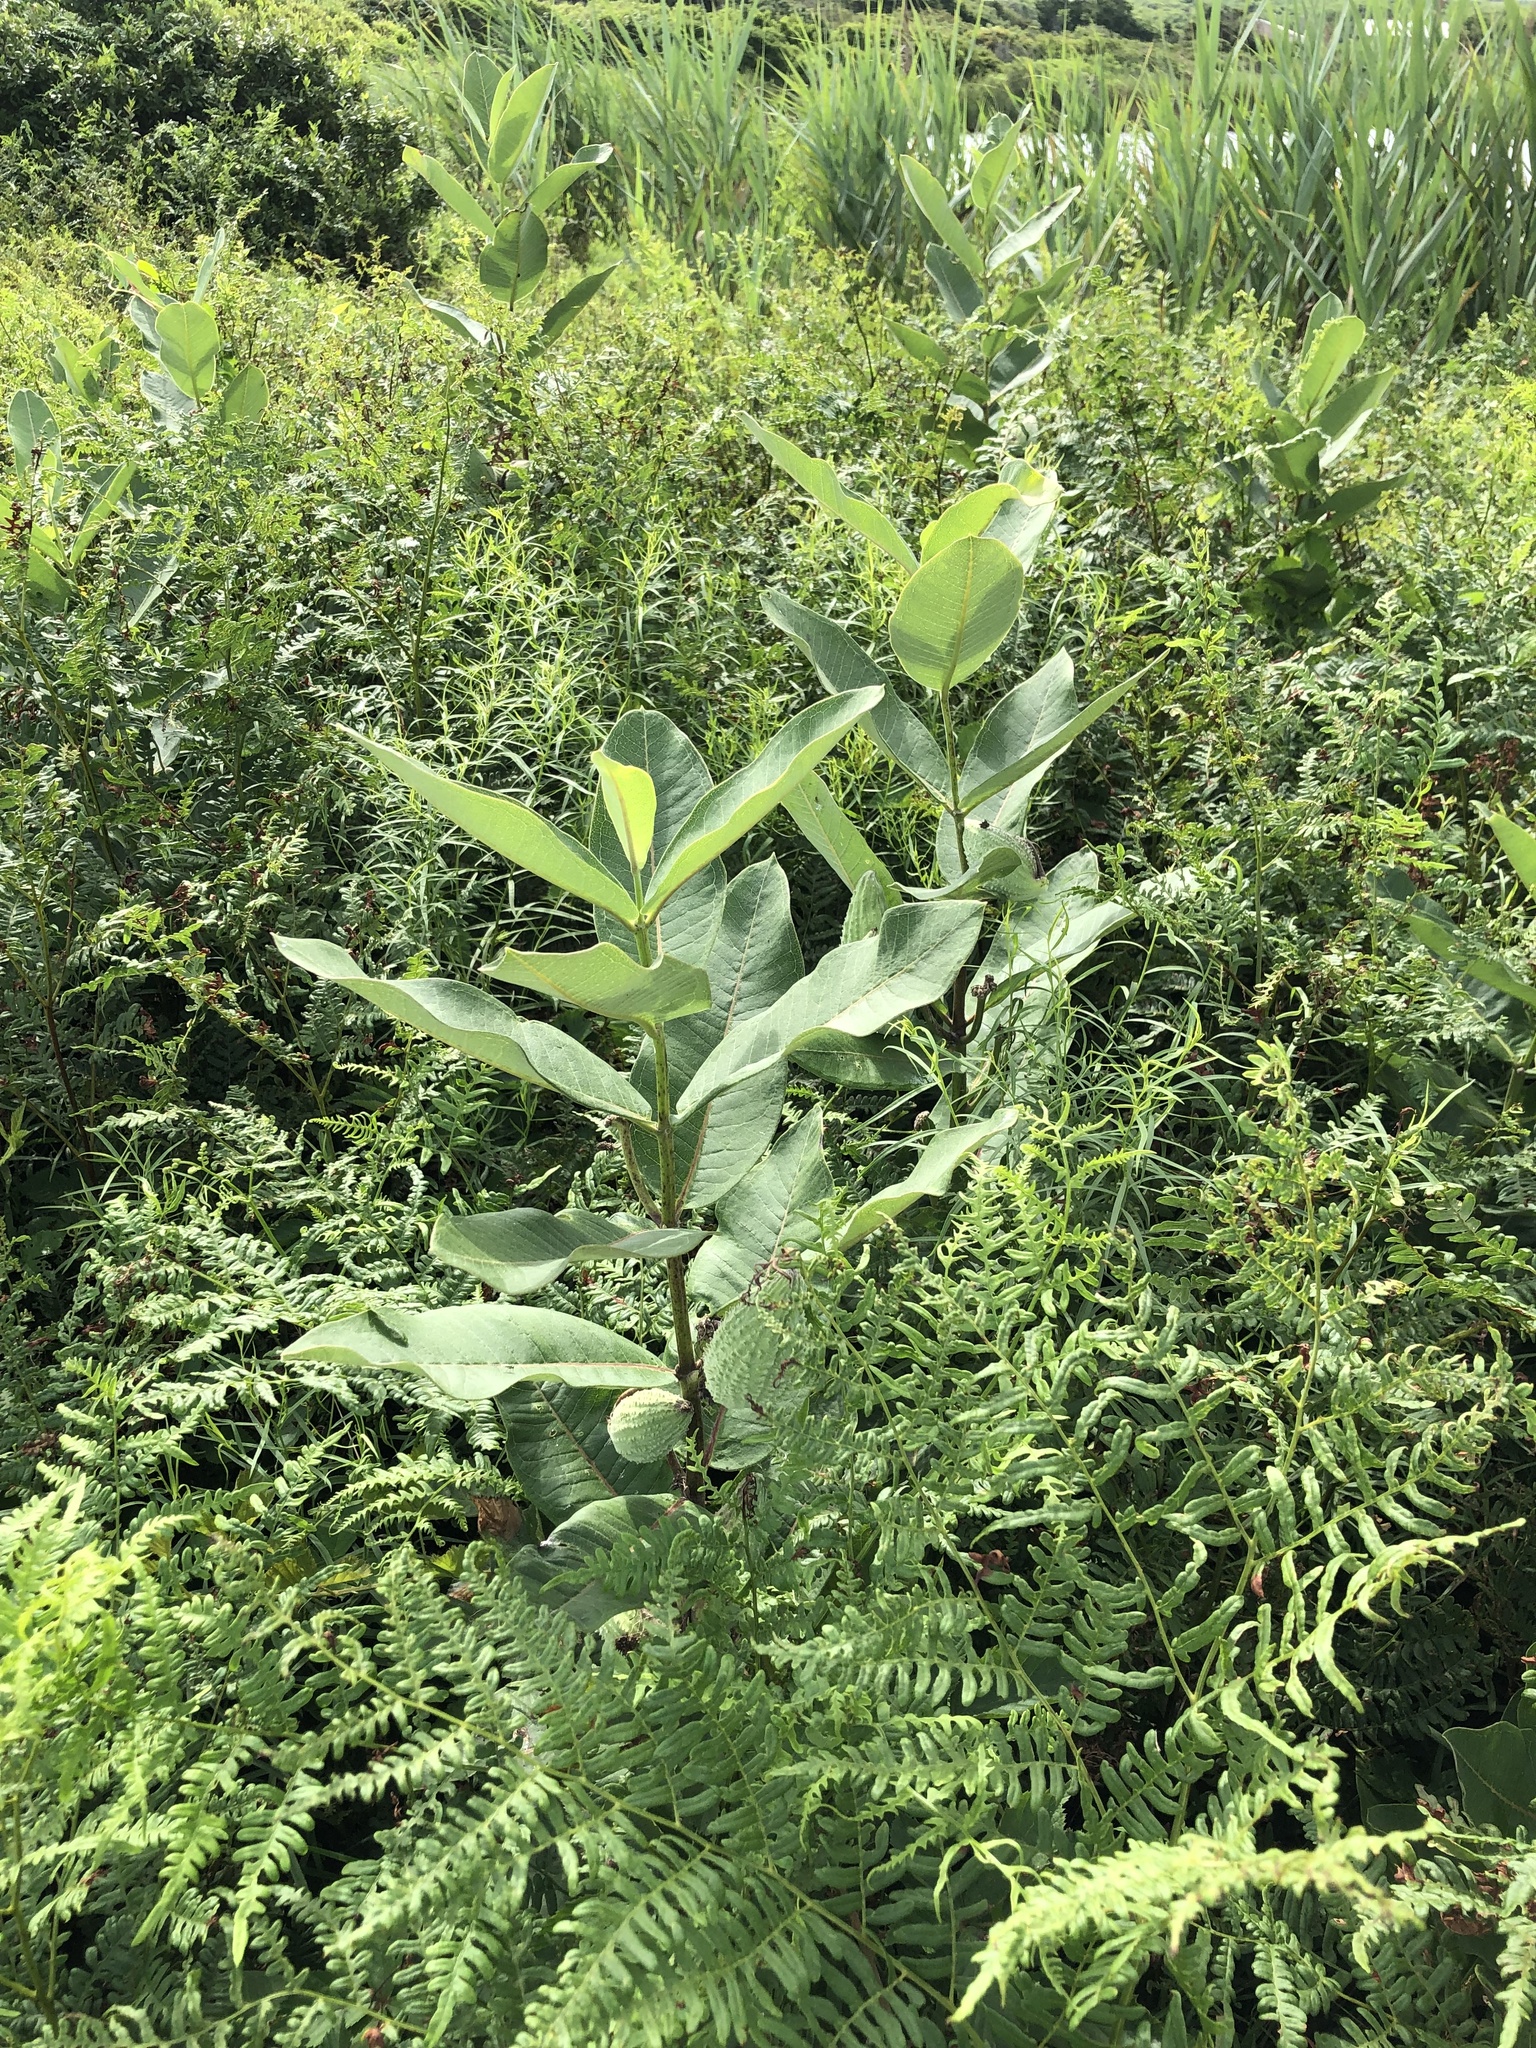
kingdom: Plantae
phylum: Tracheophyta
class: Magnoliopsida
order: Gentianales
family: Apocynaceae
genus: Asclepias
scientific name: Asclepias syriaca
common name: Common milkweed
